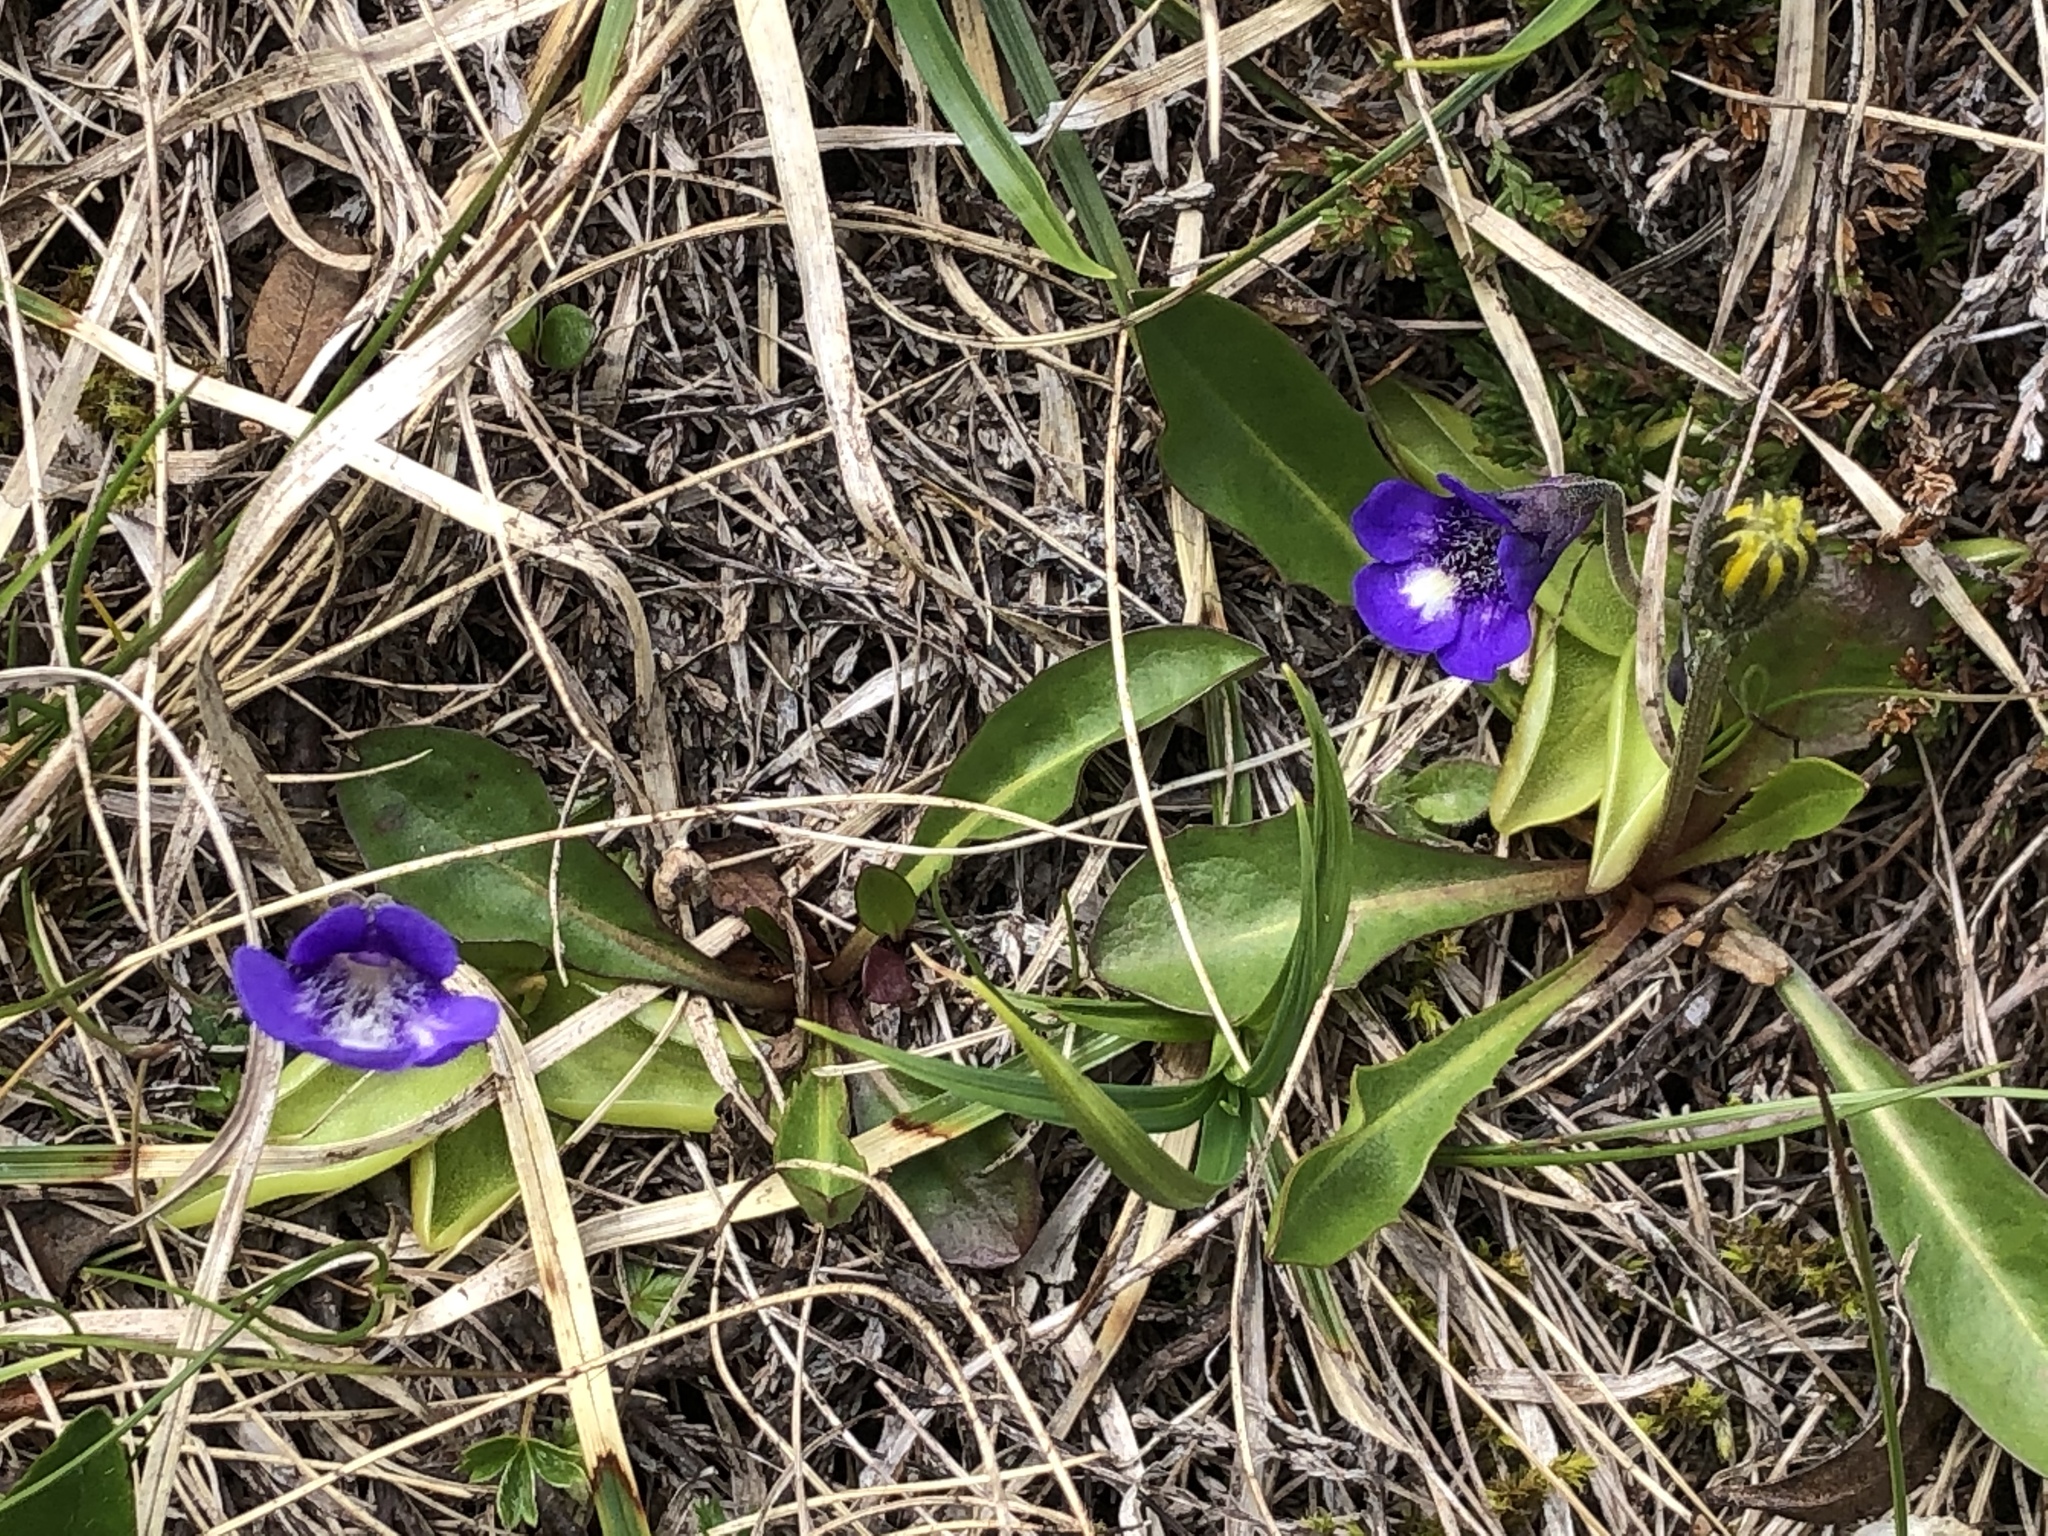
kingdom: Plantae
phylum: Tracheophyta
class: Magnoliopsida
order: Lamiales
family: Lentibulariaceae
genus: Pinguicula
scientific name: Pinguicula leptoceras
